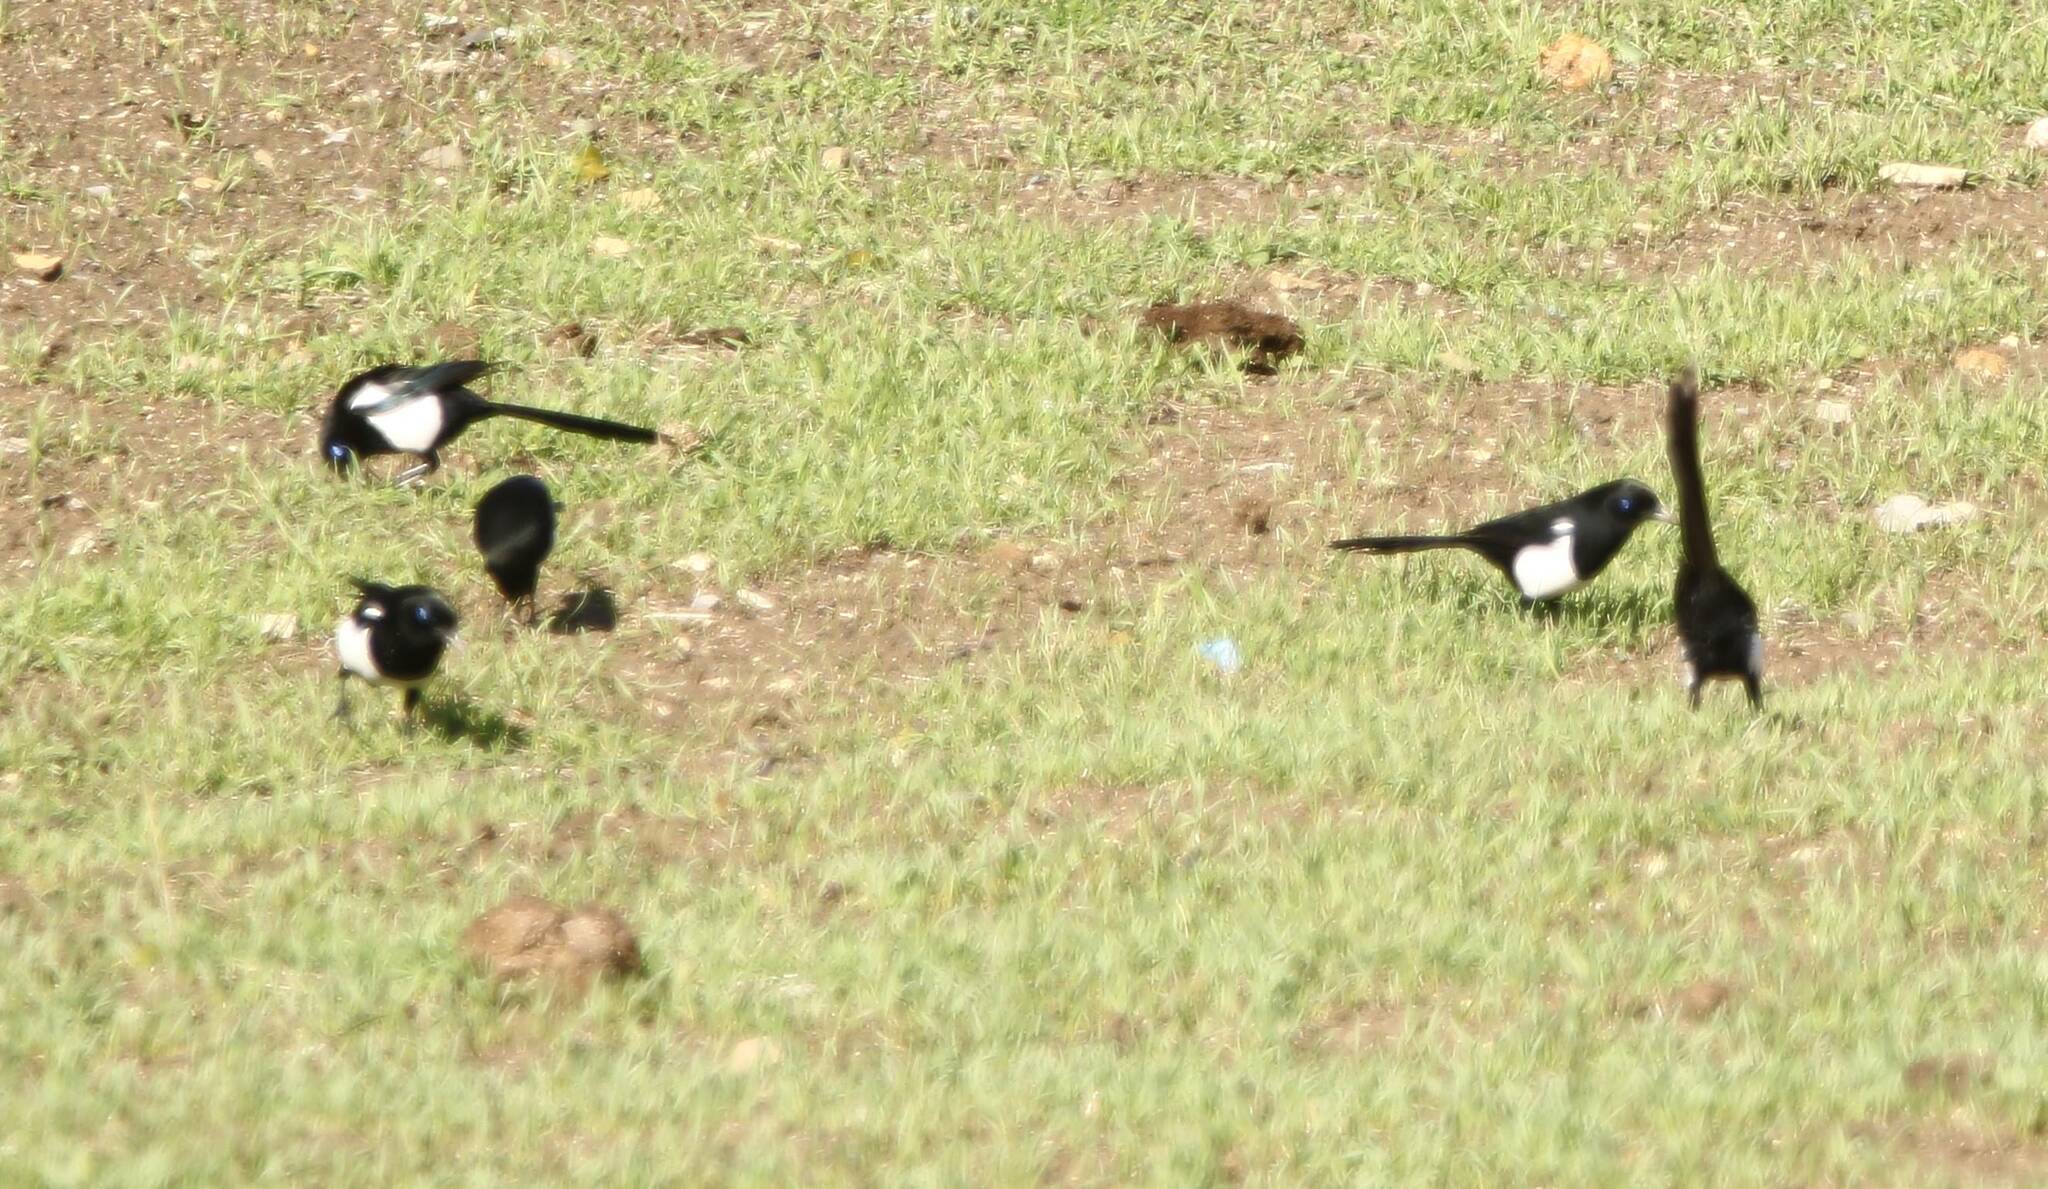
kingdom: Animalia
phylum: Chordata
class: Aves
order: Passeriformes
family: Corvidae
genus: Pica
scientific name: Pica mauritanica
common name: Maghreb magpie
